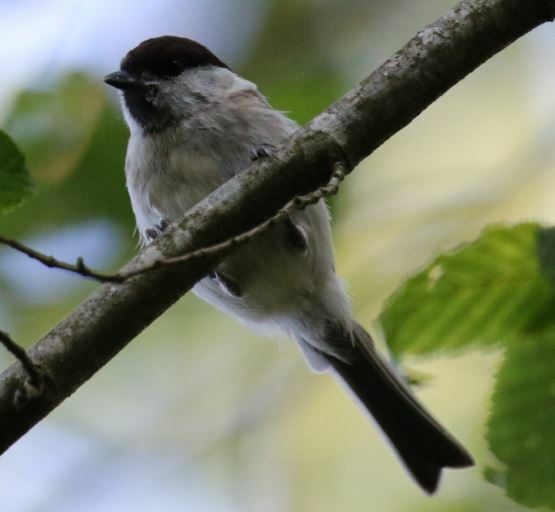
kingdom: Animalia
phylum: Chordata
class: Aves
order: Passeriformes
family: Paridae
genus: Poecile
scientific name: Poecile palustris
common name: Marsh tit
